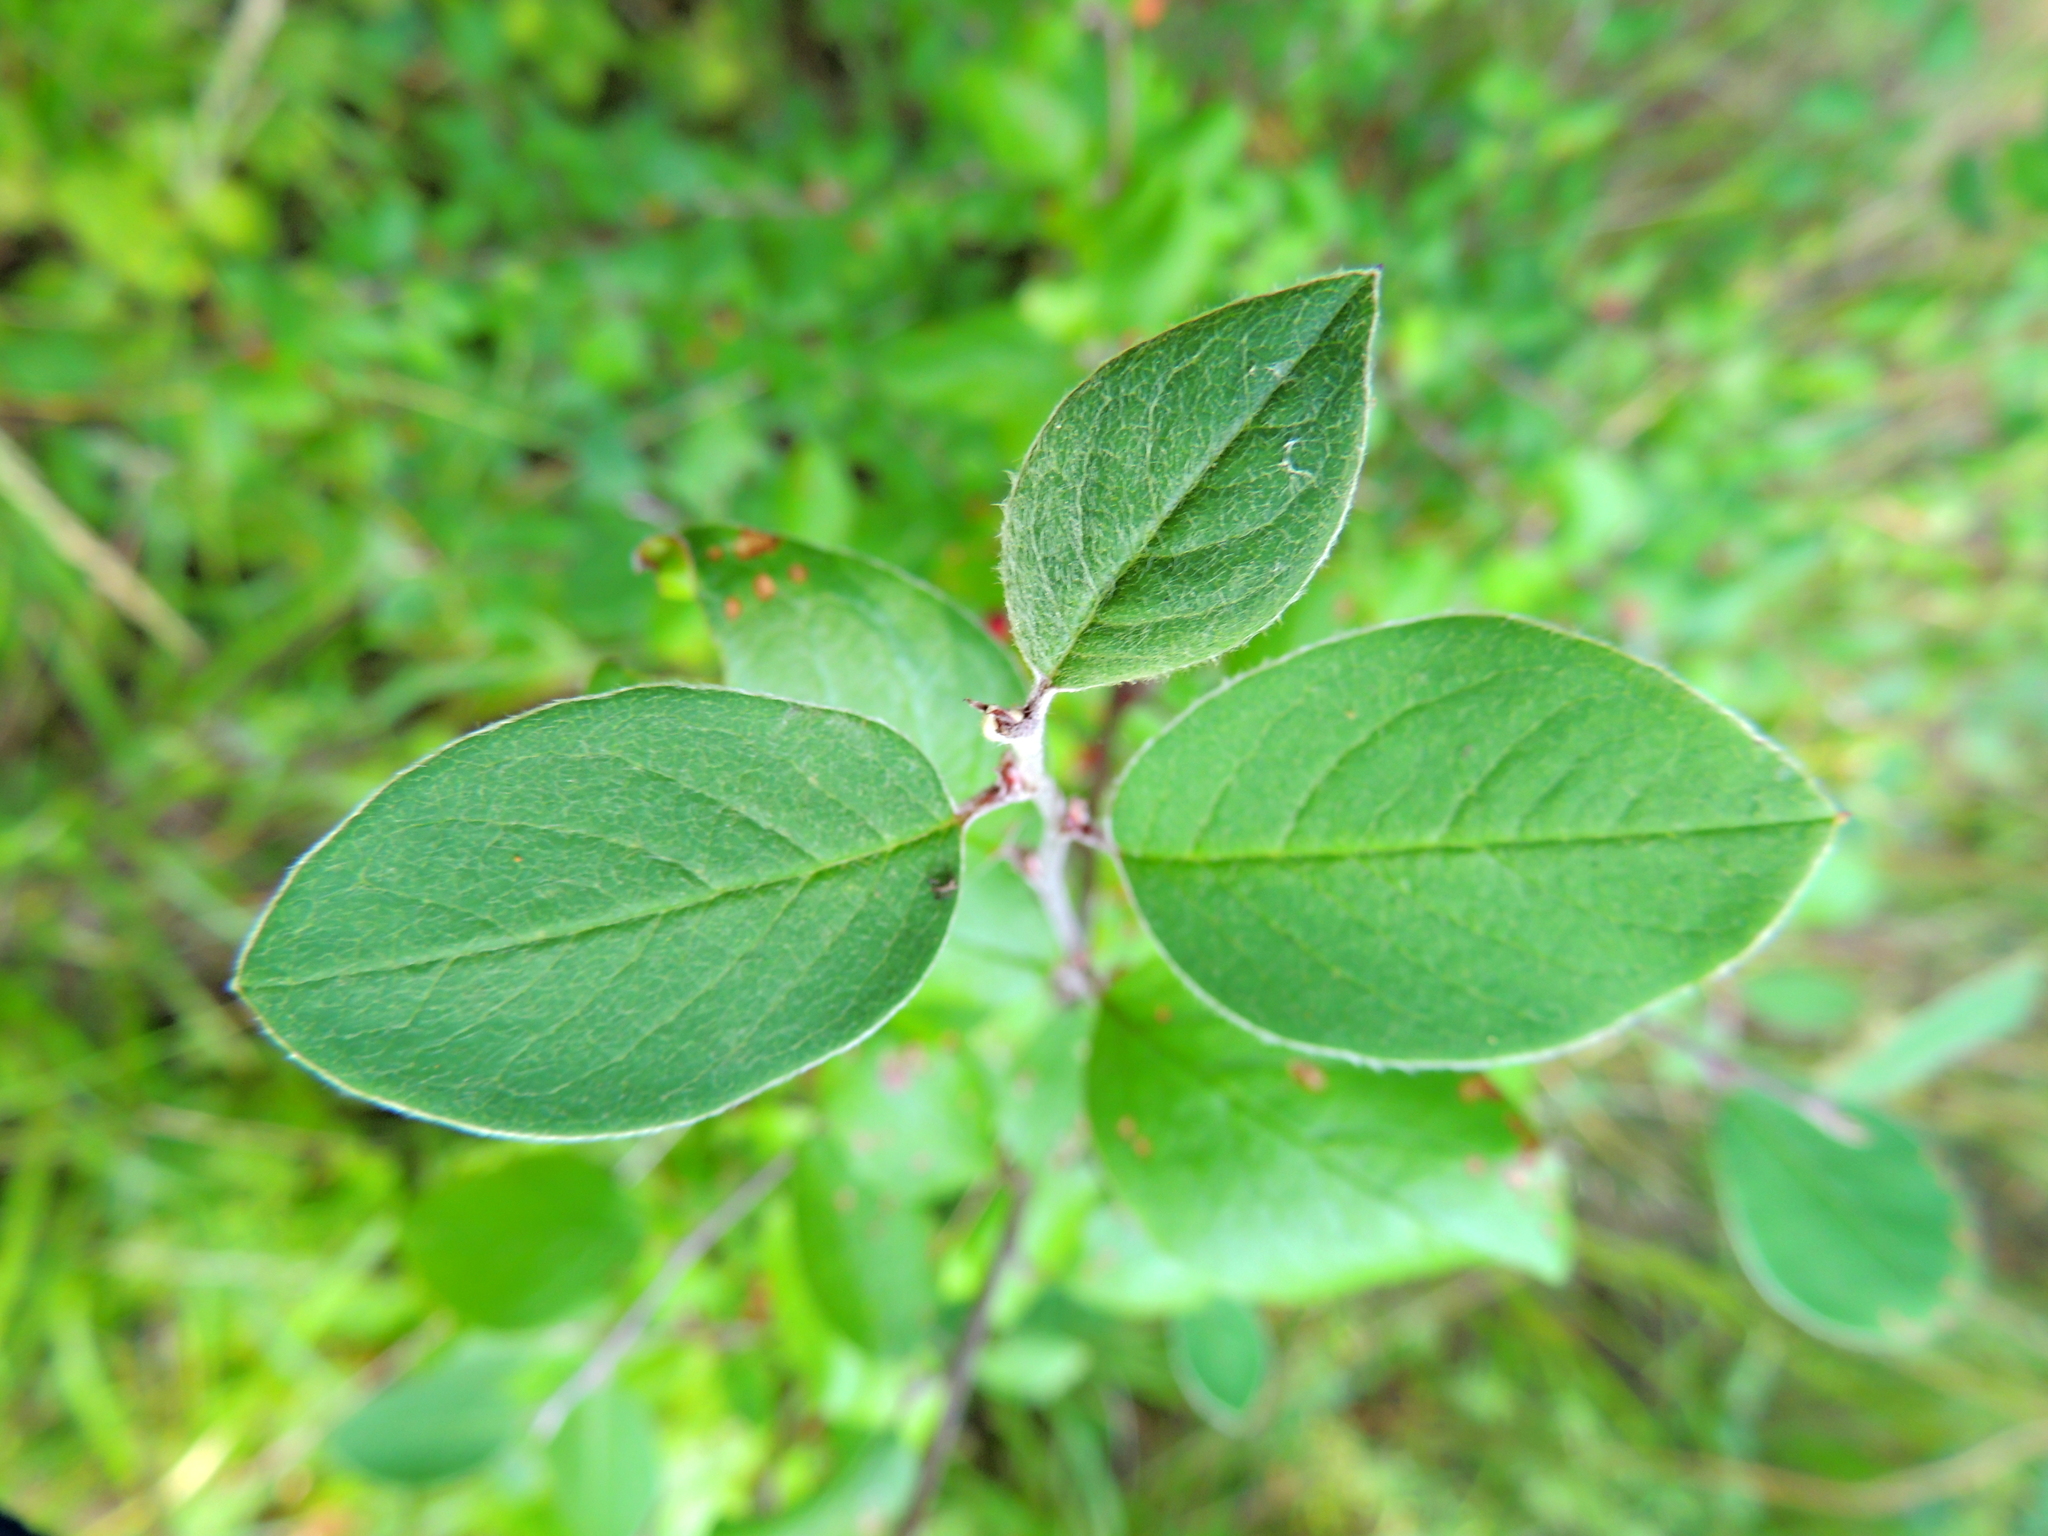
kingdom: Plantae
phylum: Tracheophyta
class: Magnoliopsida
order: Rosales
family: Rosaceae
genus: Cotoneaster
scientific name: Cotoneaster melanocarpus
